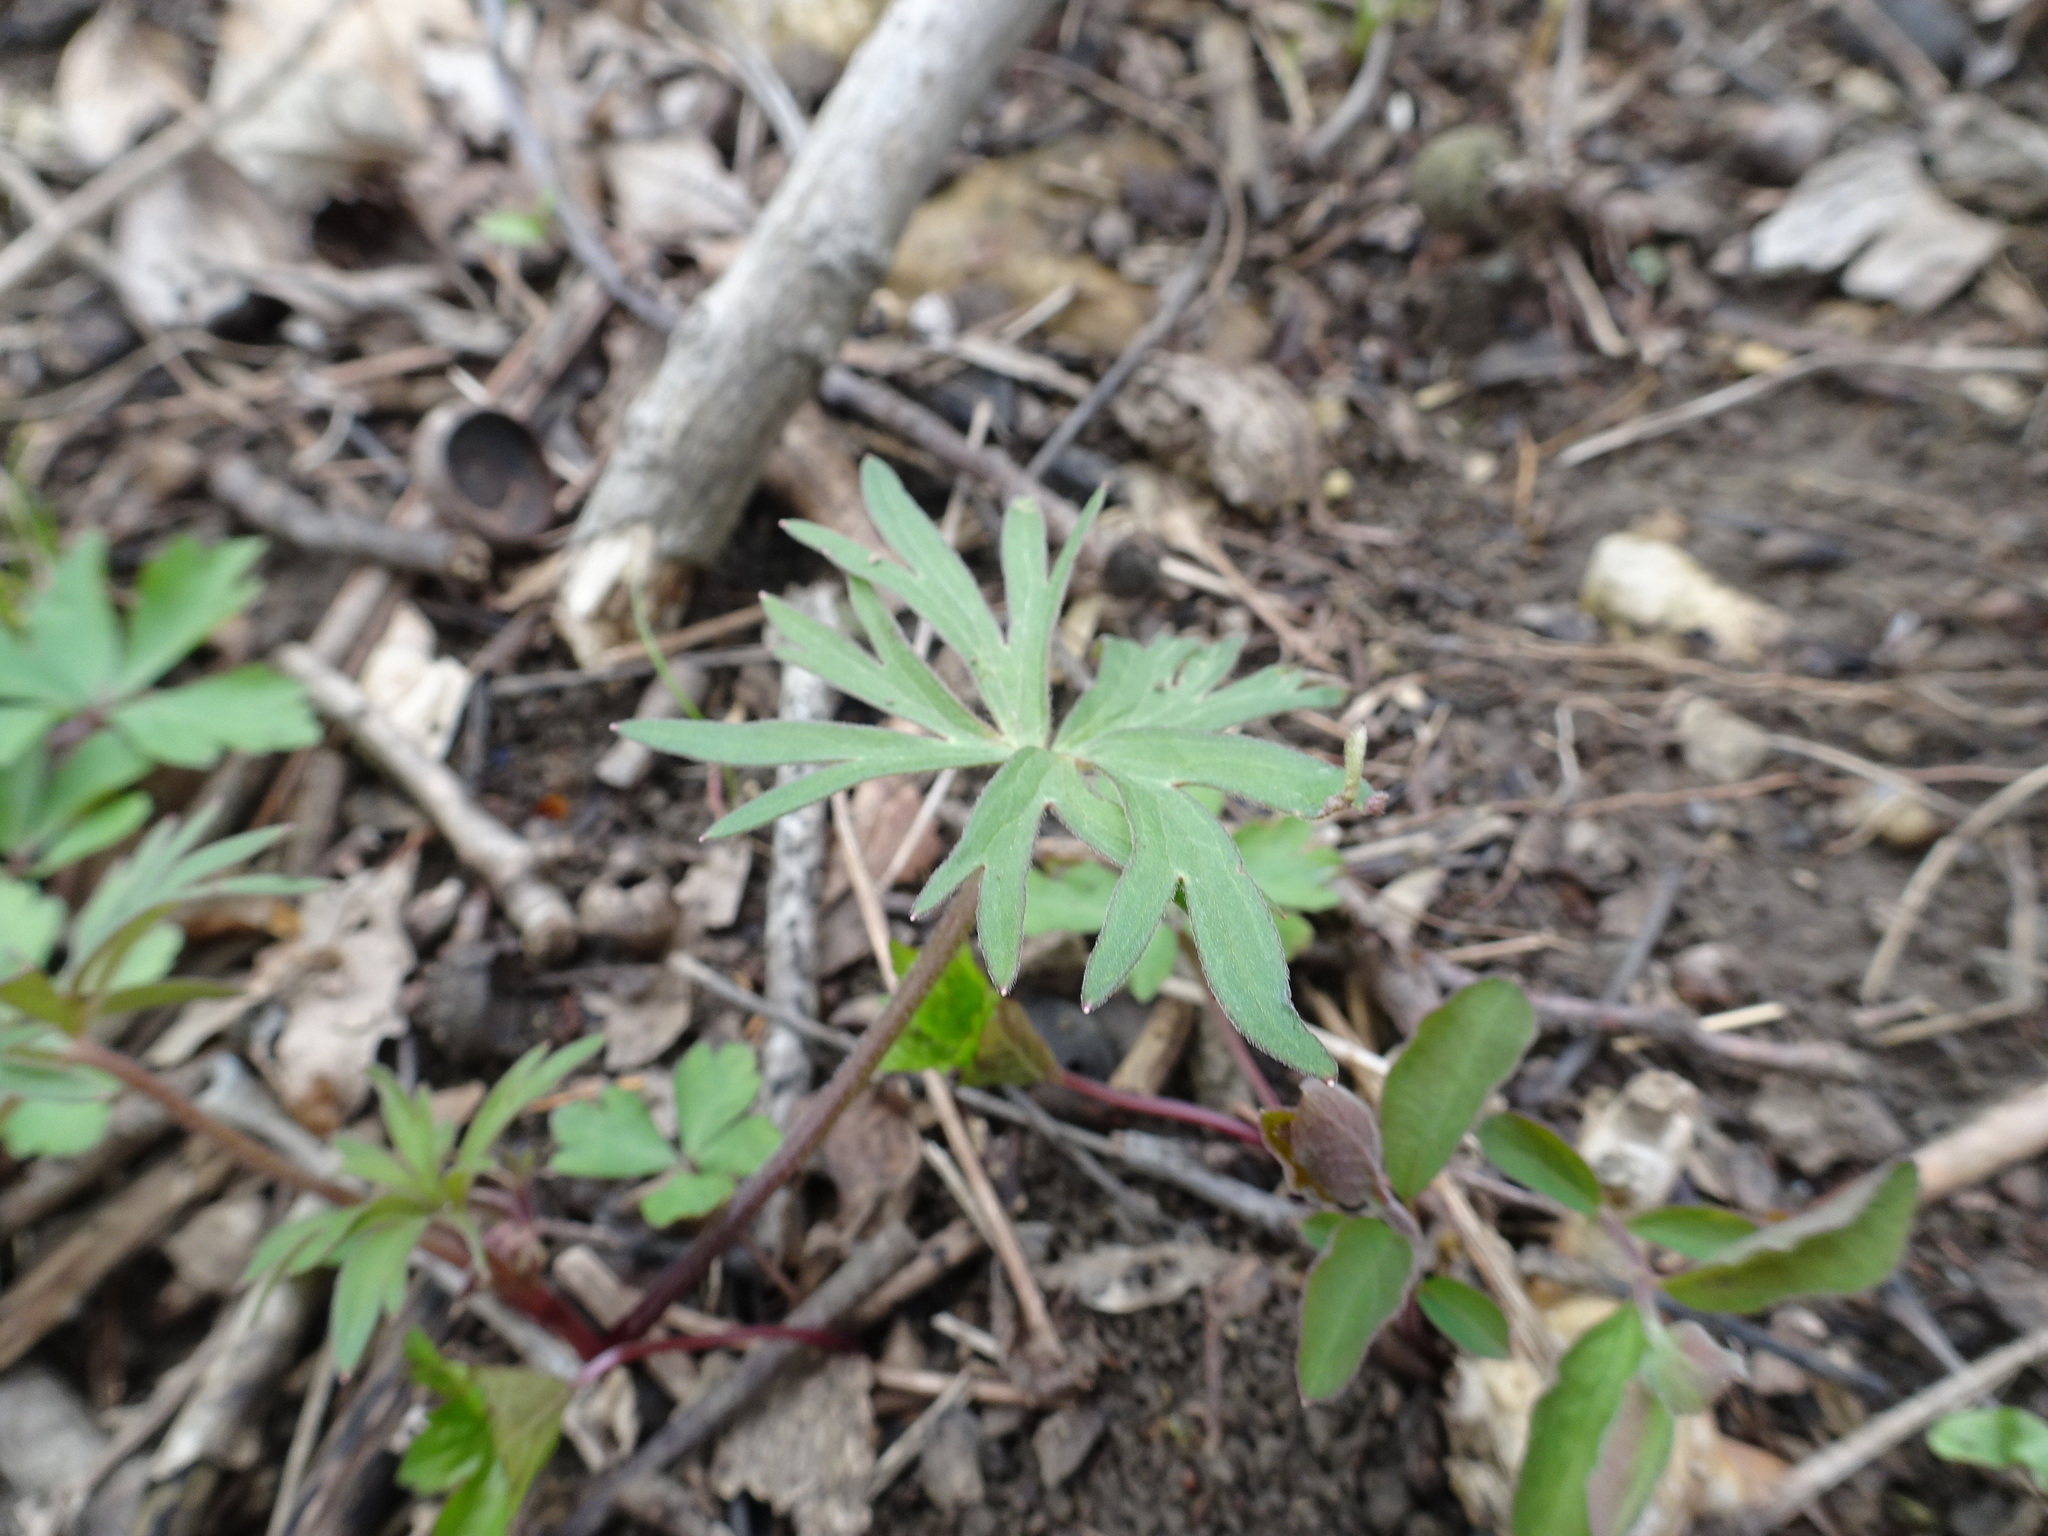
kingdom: Plantae
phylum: Tracheophyta
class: Magnoliopsida
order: Ranunculales
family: Ranunculaceae
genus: Delphinium
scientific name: Delphinium tricorne
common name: Dwarf larkspur
